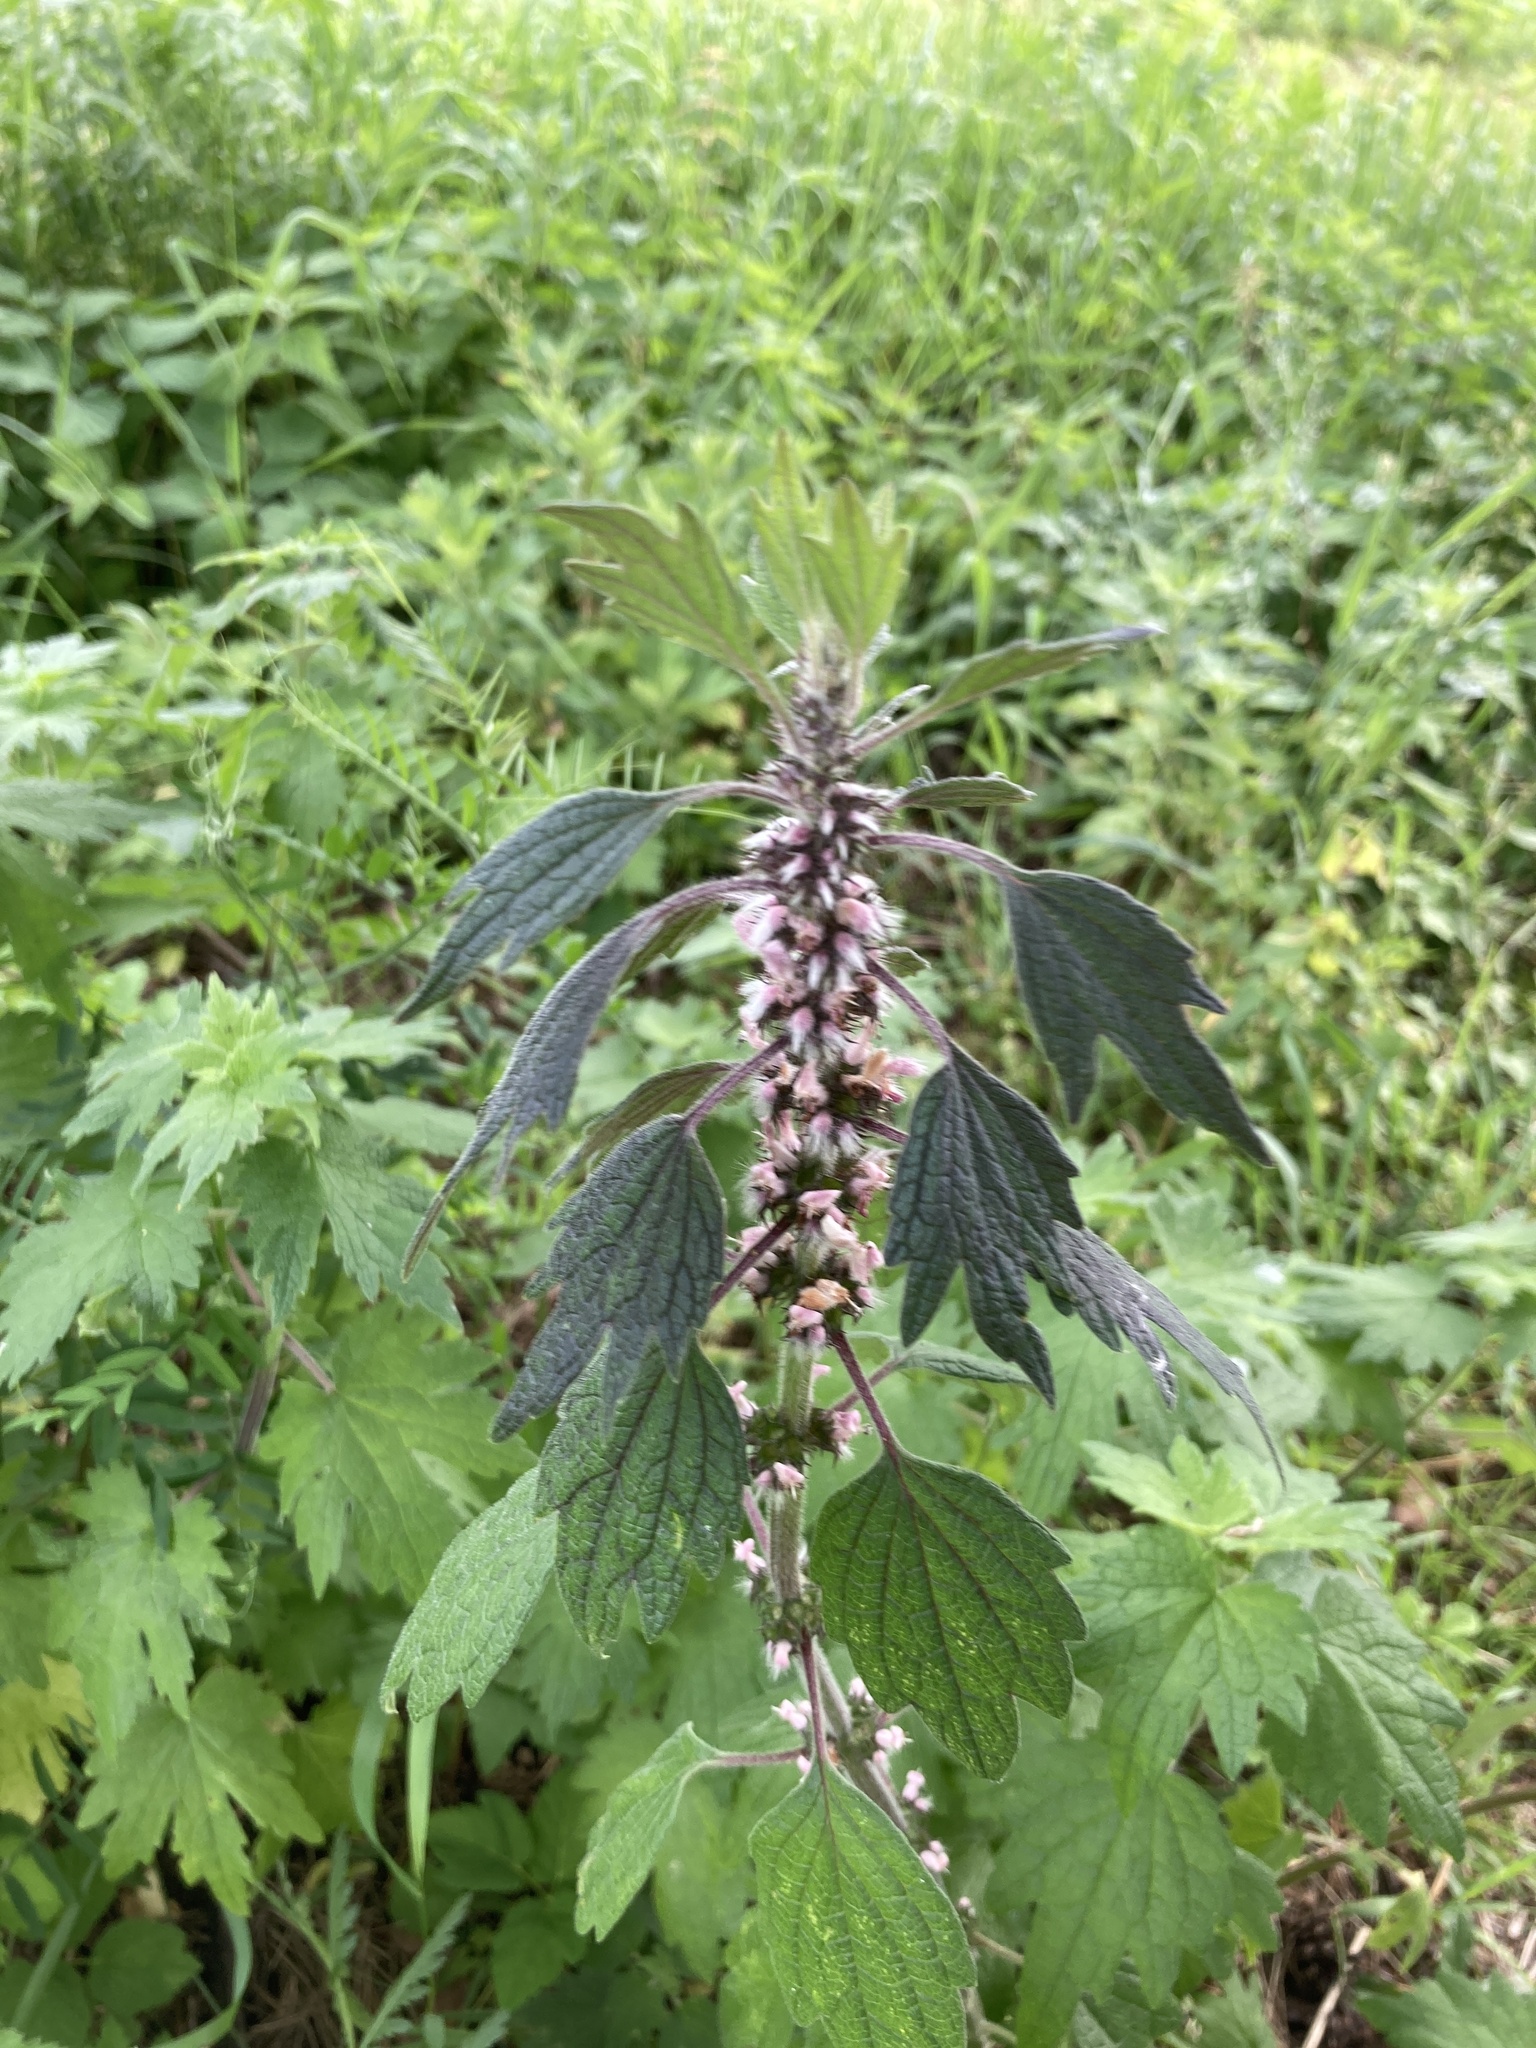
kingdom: Plantae
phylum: Tracheophyta
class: Magnoliopsida
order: Lamiales
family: Lamiaceae
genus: Leonurus
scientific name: Leonurus quinquelobatus
